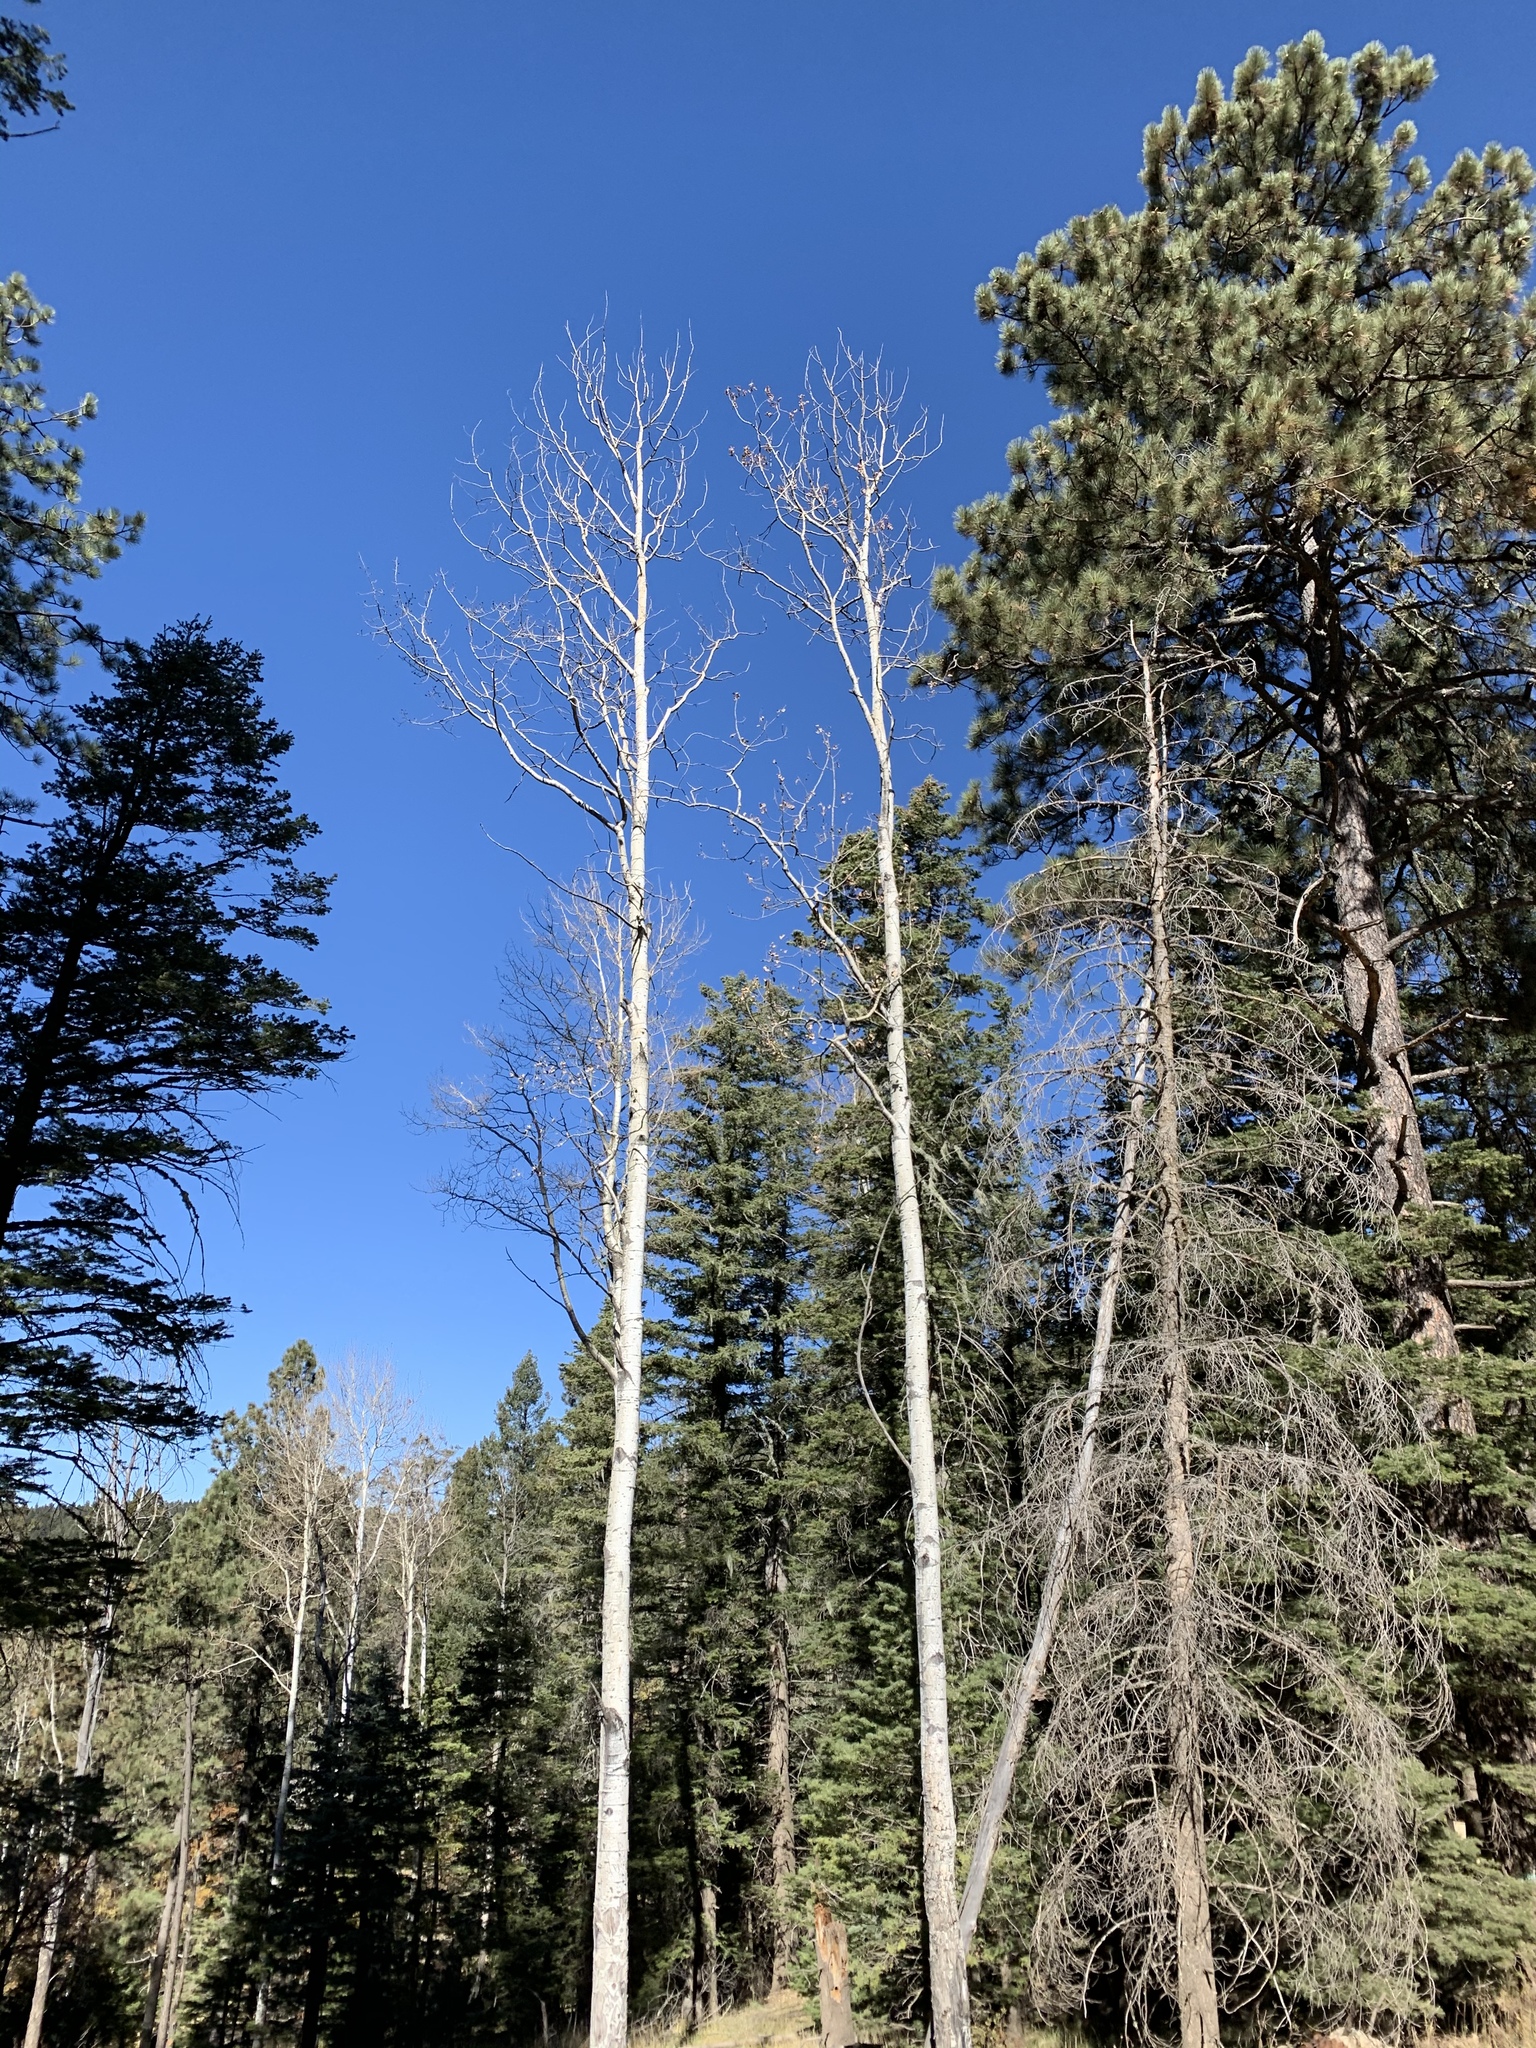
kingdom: Plantae
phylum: Tracheophyta
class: Magnoliopsida
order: Malpighiales
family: Salicaceae
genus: Populus
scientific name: Populus tremuloides
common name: Quaking aspen
